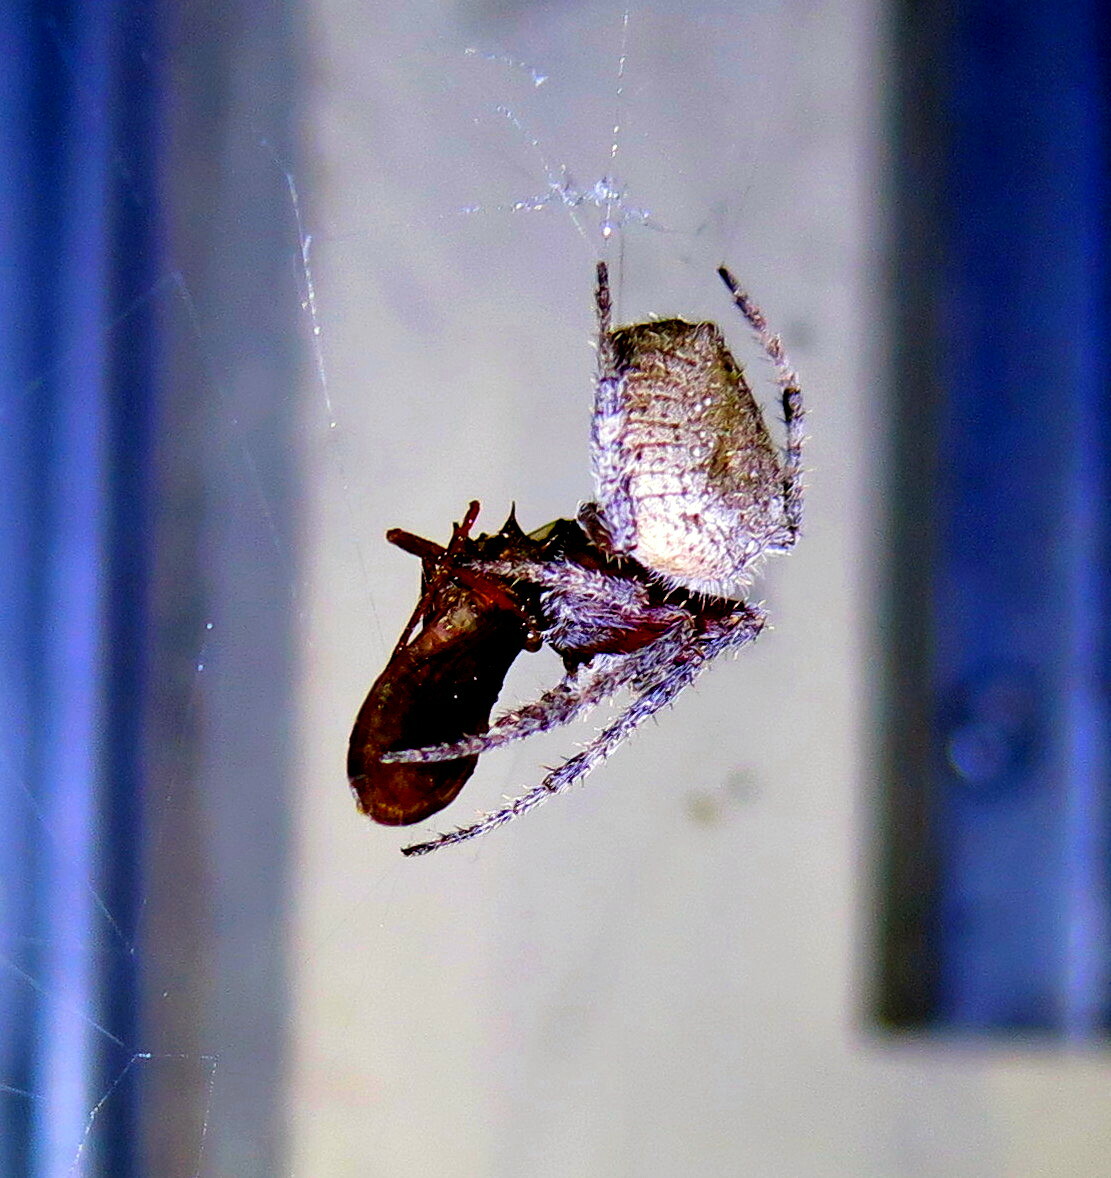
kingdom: Animalia
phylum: Arthropoda
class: Arachnida
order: Araneae
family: Araneidae
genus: Eriophora
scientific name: Eriophora edax
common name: Orb weavers
